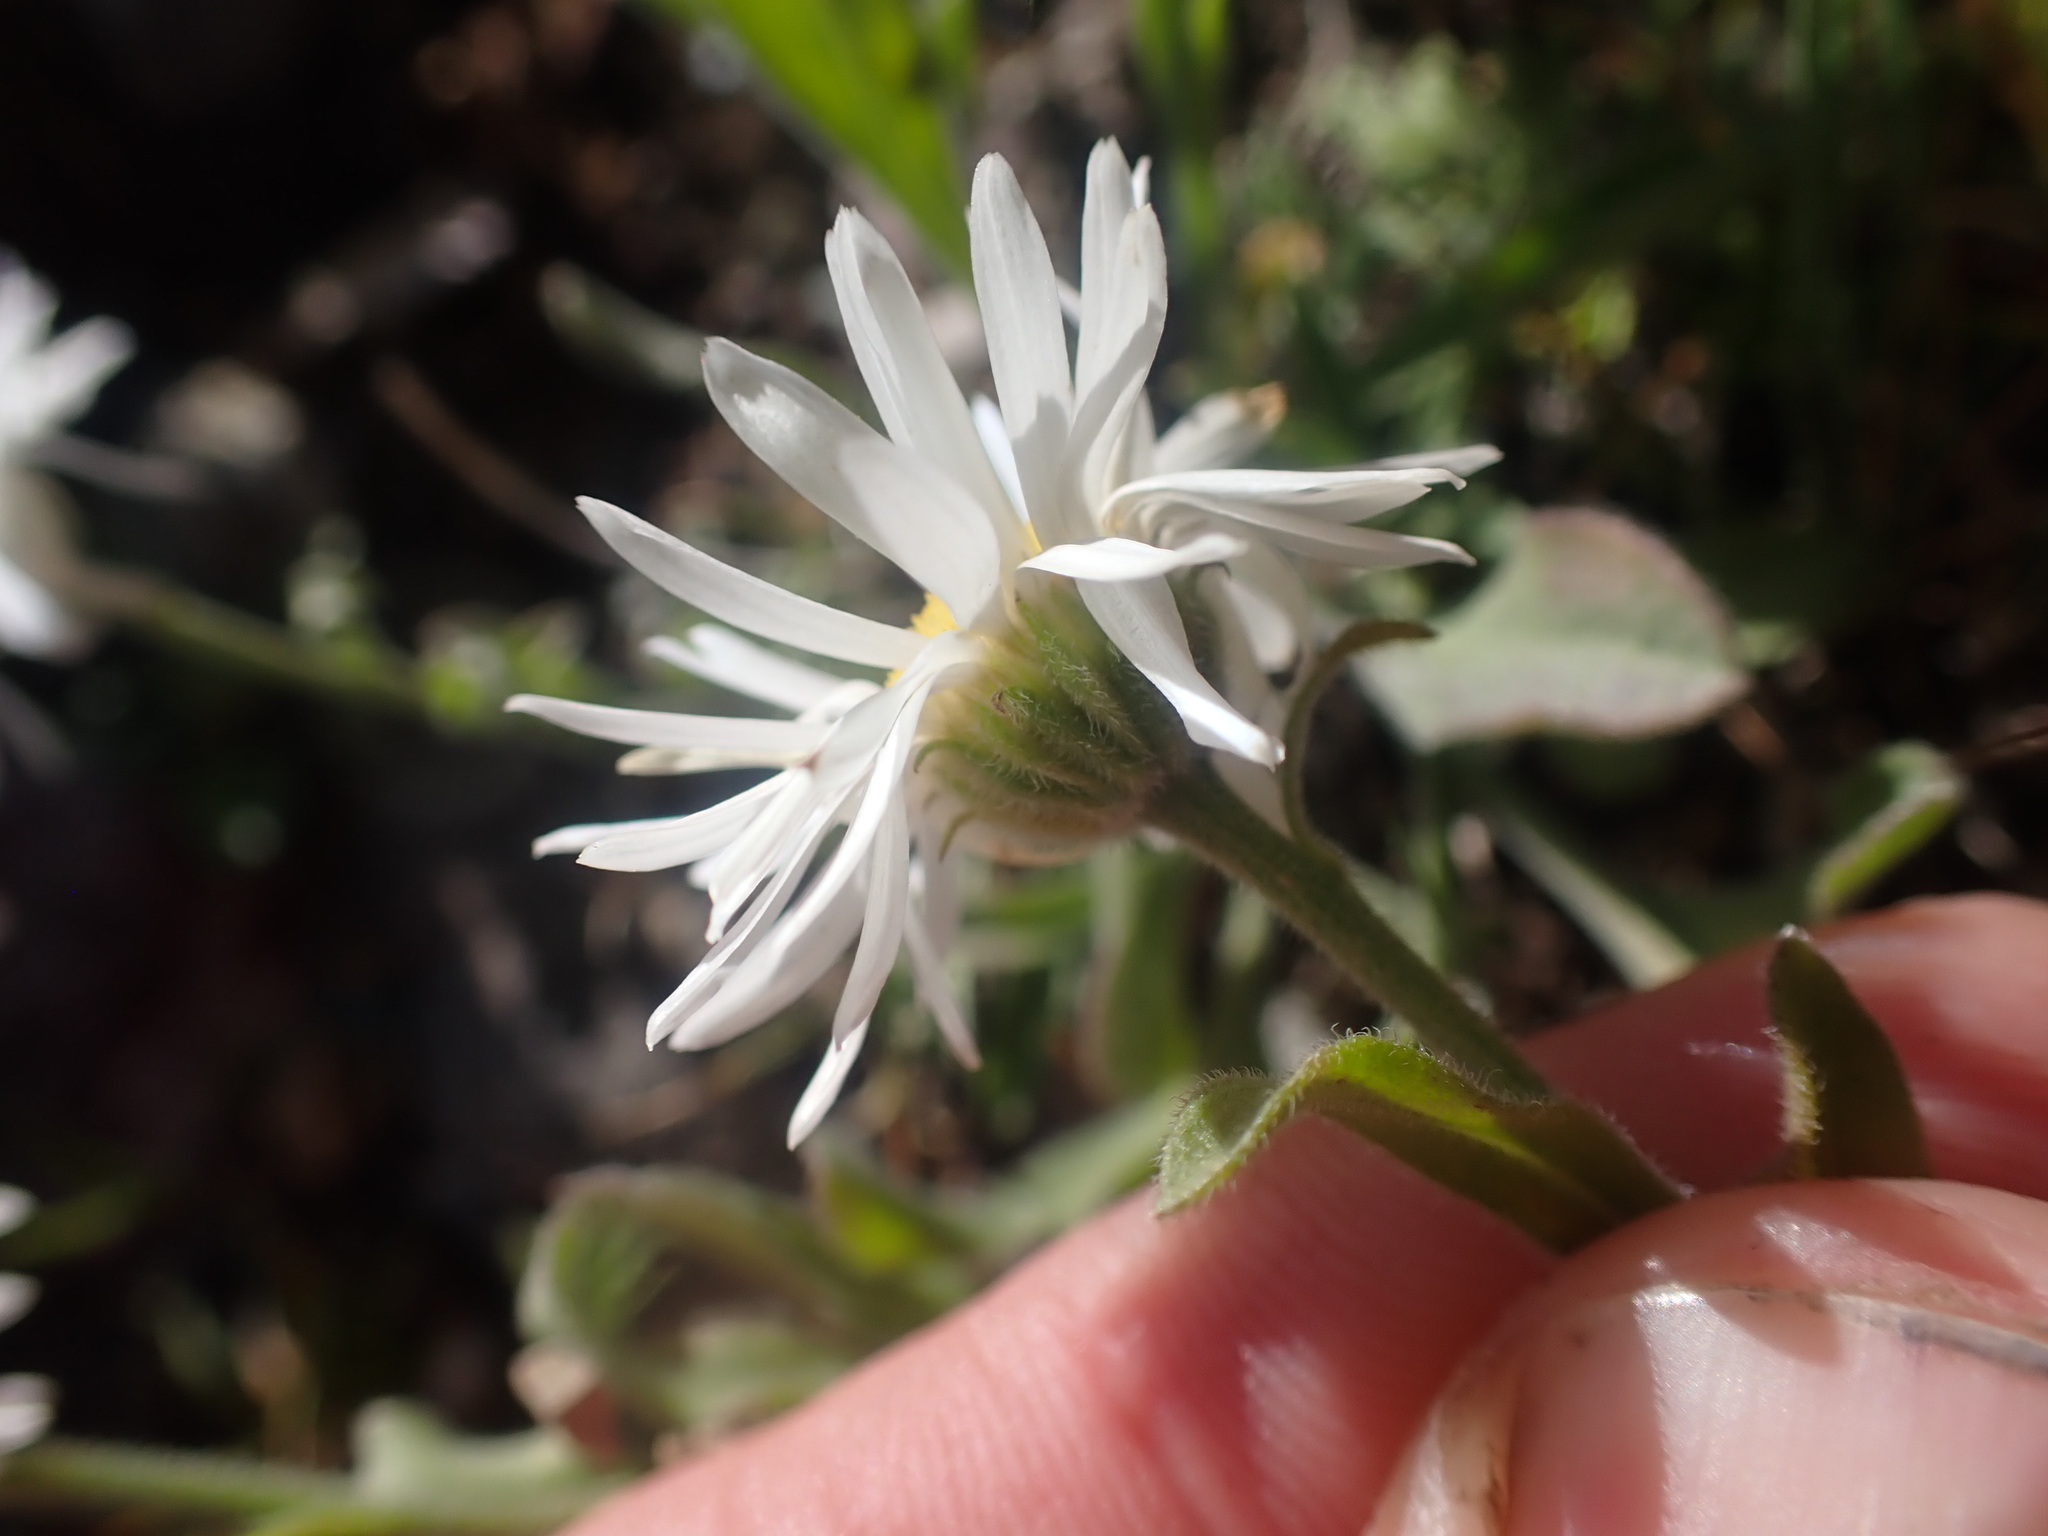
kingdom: Plantae
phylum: Tracheophyta
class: Magnoliopsida
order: Asterales
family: Asteraceae
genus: Erigeron
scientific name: Erigeron caespitosus
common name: Tufted fleabane
